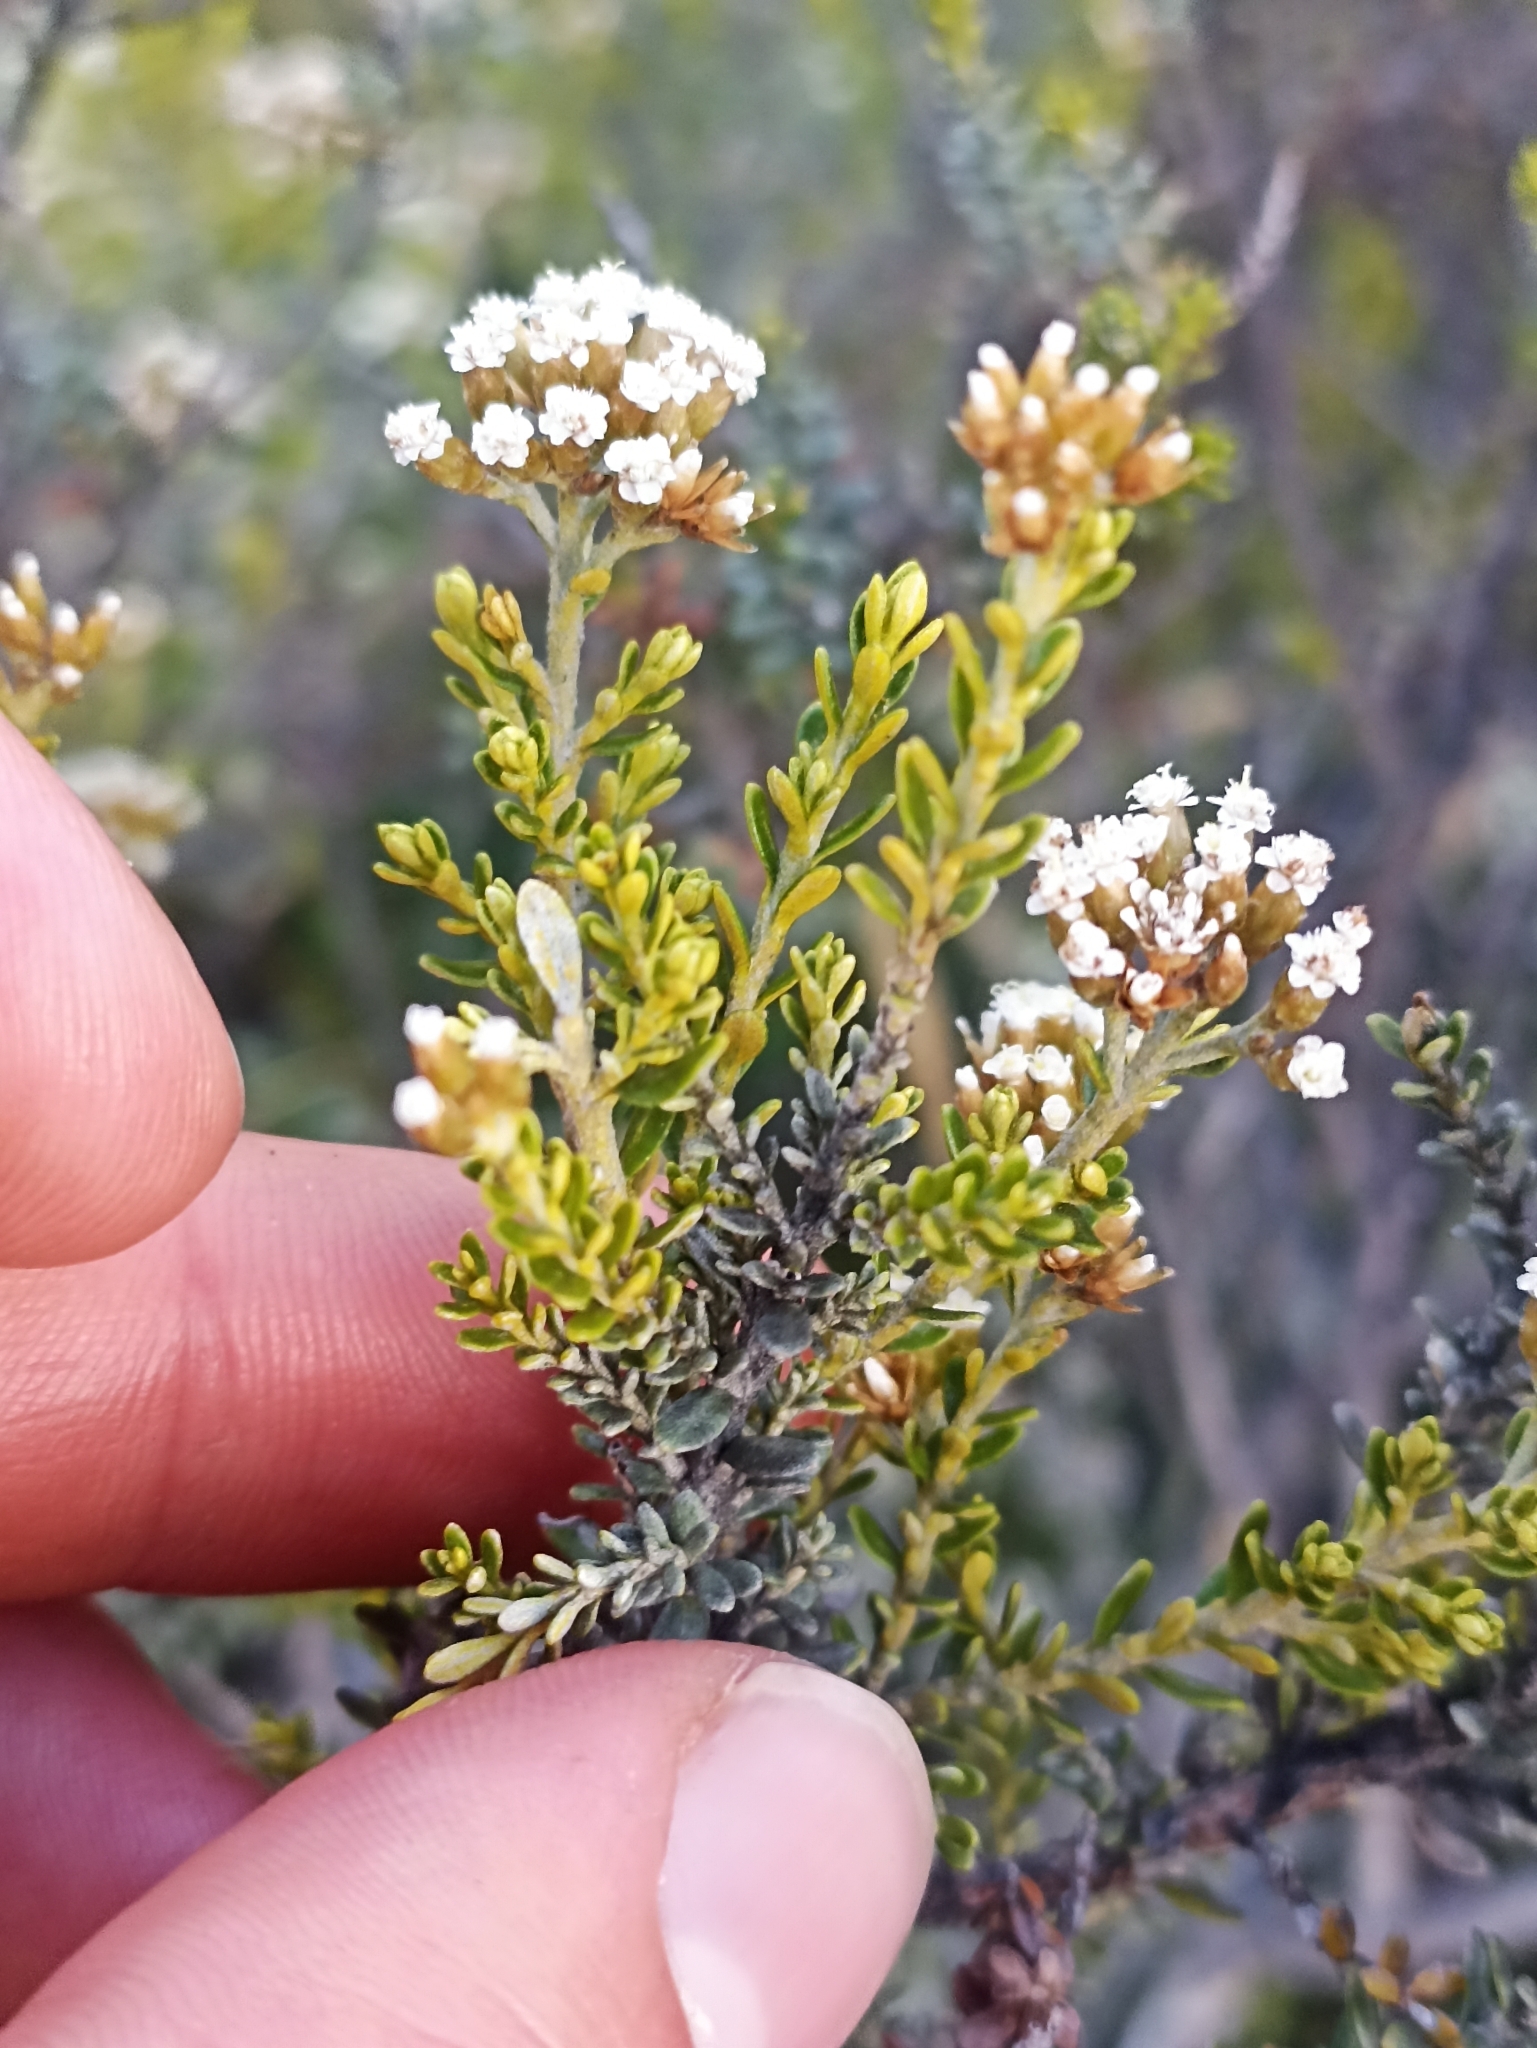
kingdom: Plantae
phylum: Tracheophyta
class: Magnoliopsida
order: Asterales
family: Asteraceae
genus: Ozothamnus
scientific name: Ozothamnus leptophyllus
